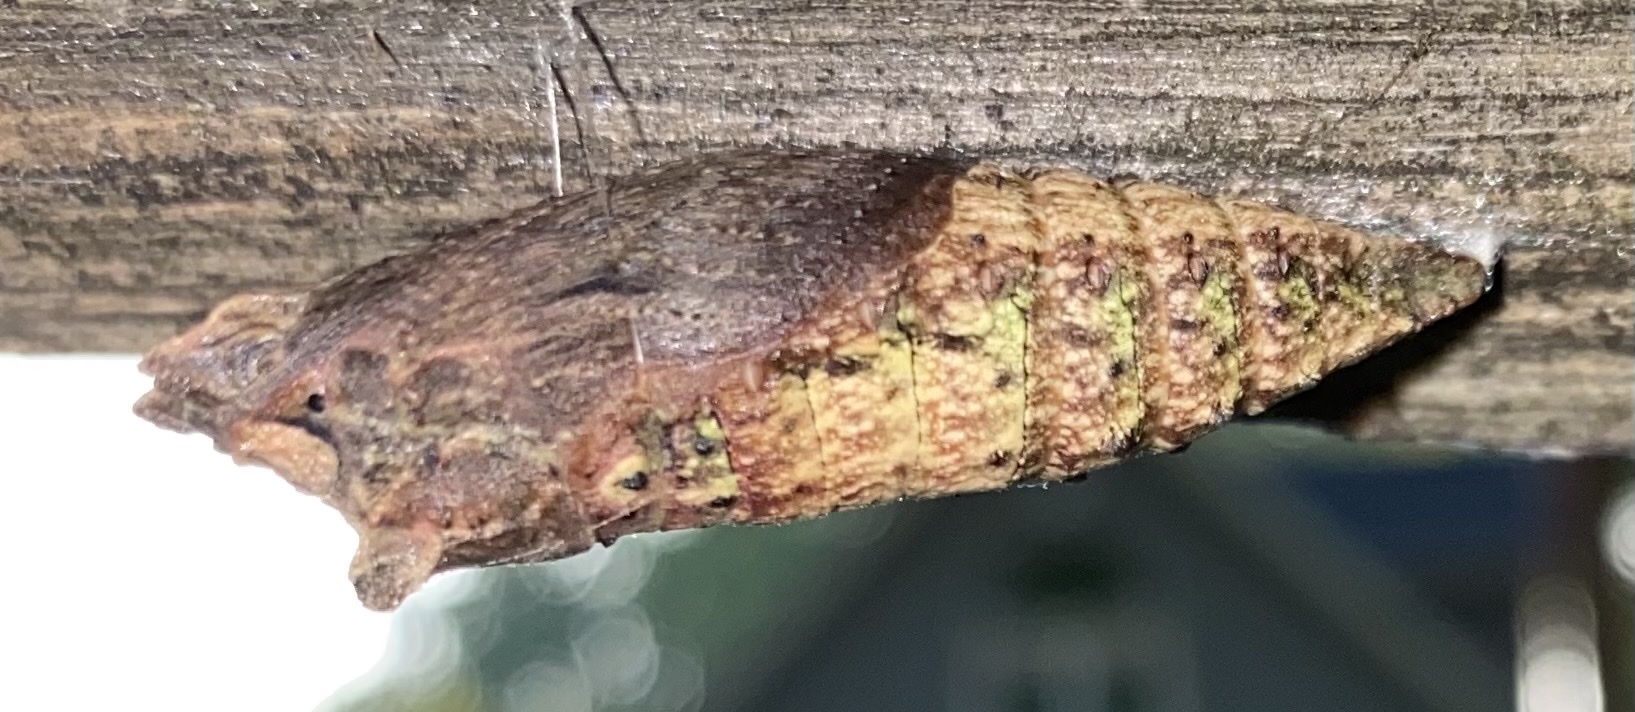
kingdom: Animalia
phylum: Arthropoda
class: Insecta
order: Lepidoptera
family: Papilionidae
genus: Papilio
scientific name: Papilio glaucus
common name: Tiger swallowtail
